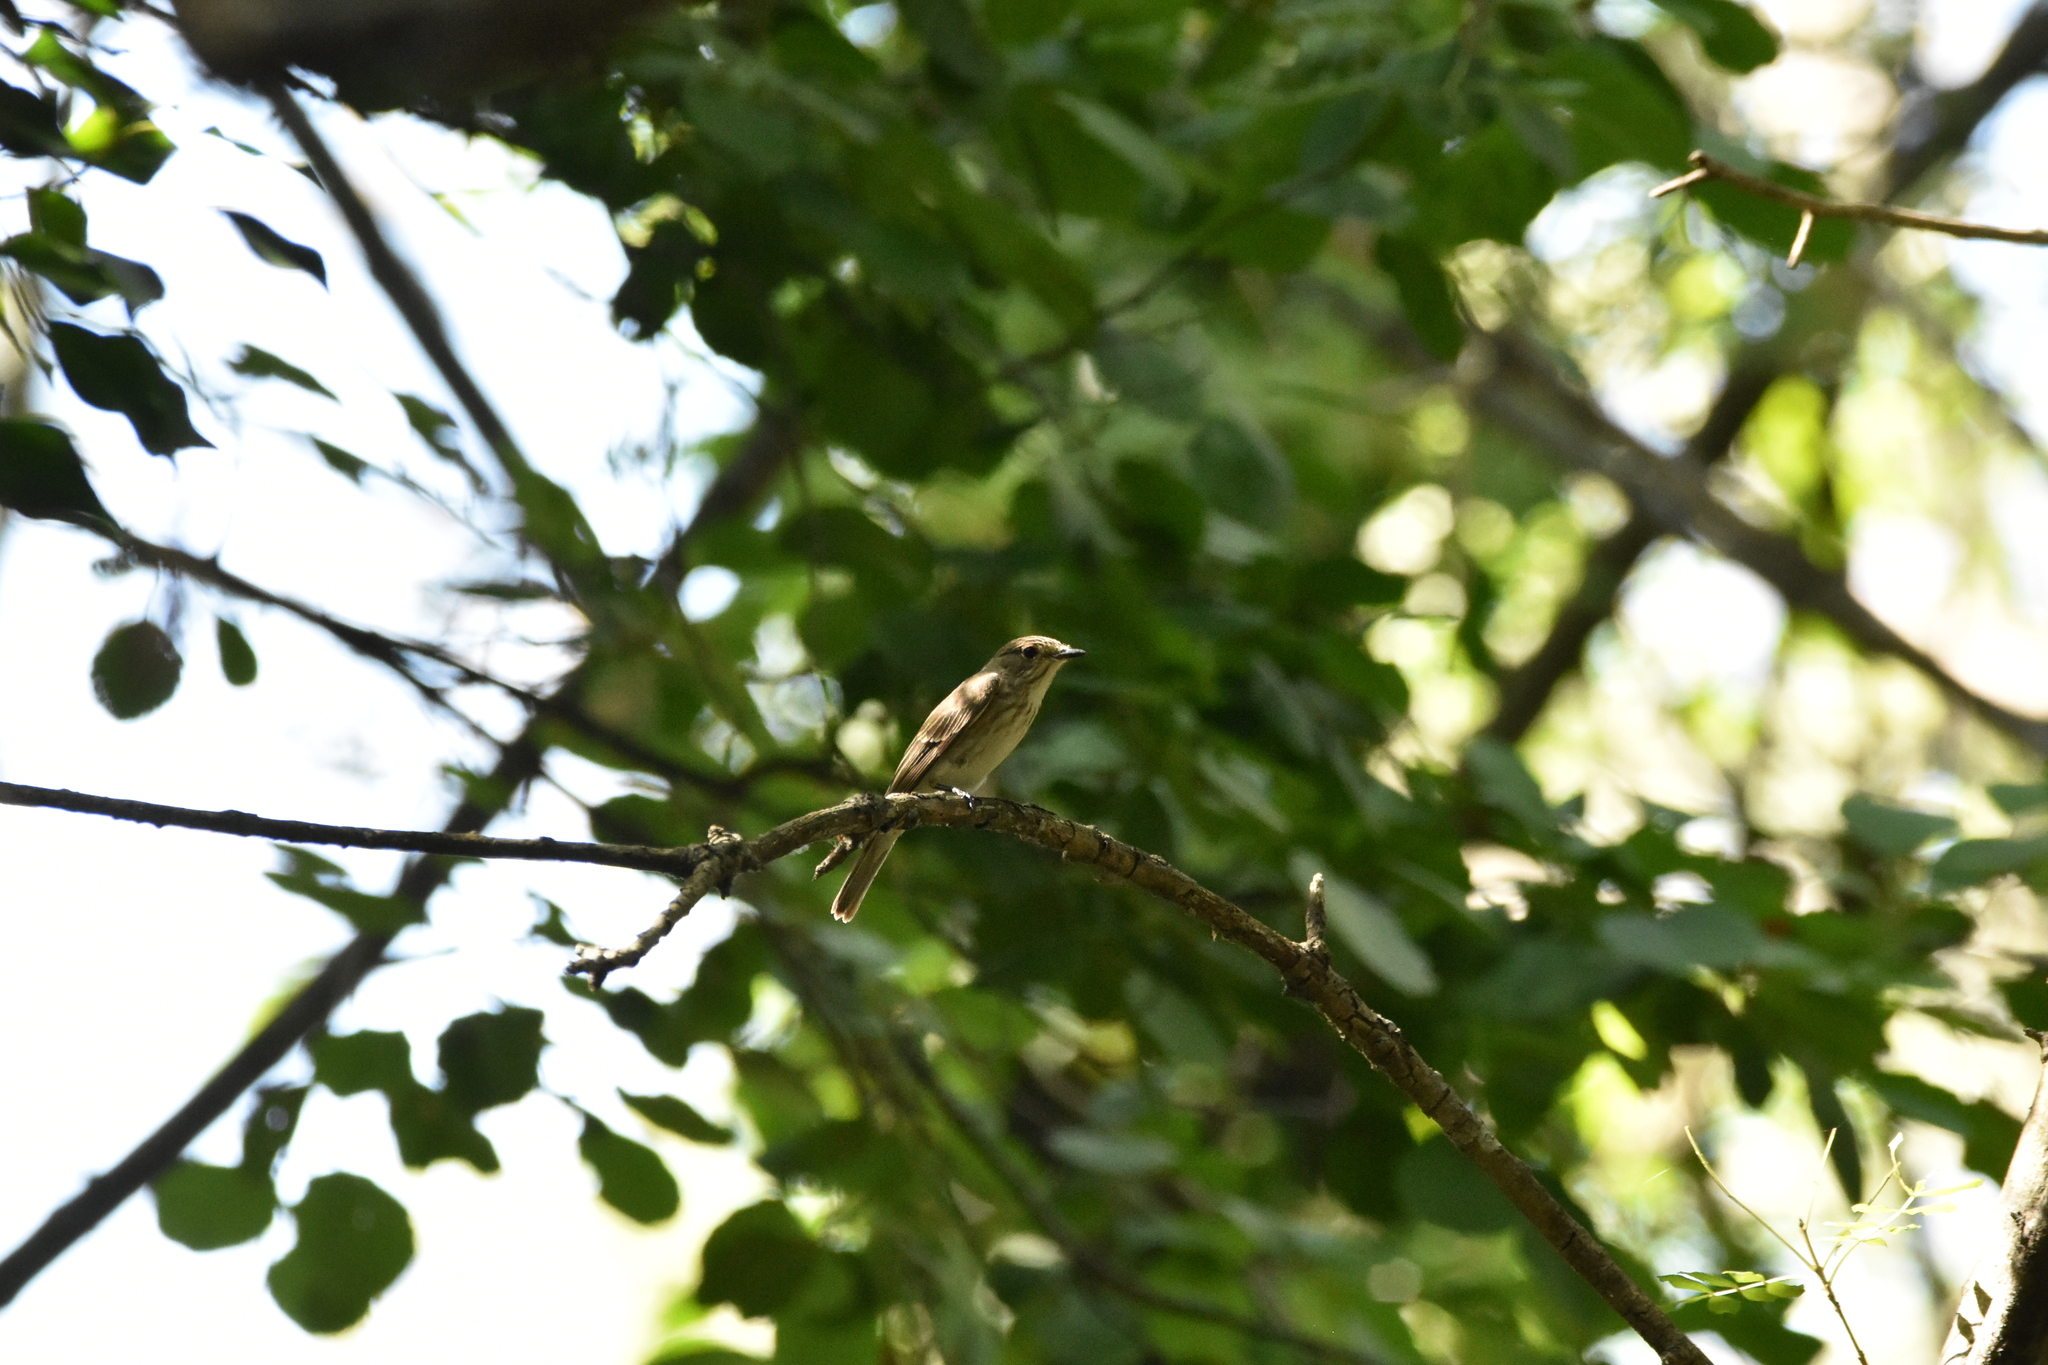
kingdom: Animalia
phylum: Chordata
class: Aves
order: Passeriformes
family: Muscicapidae
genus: Muscicapa
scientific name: Muscicapa striata
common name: Spotted flycatcher
